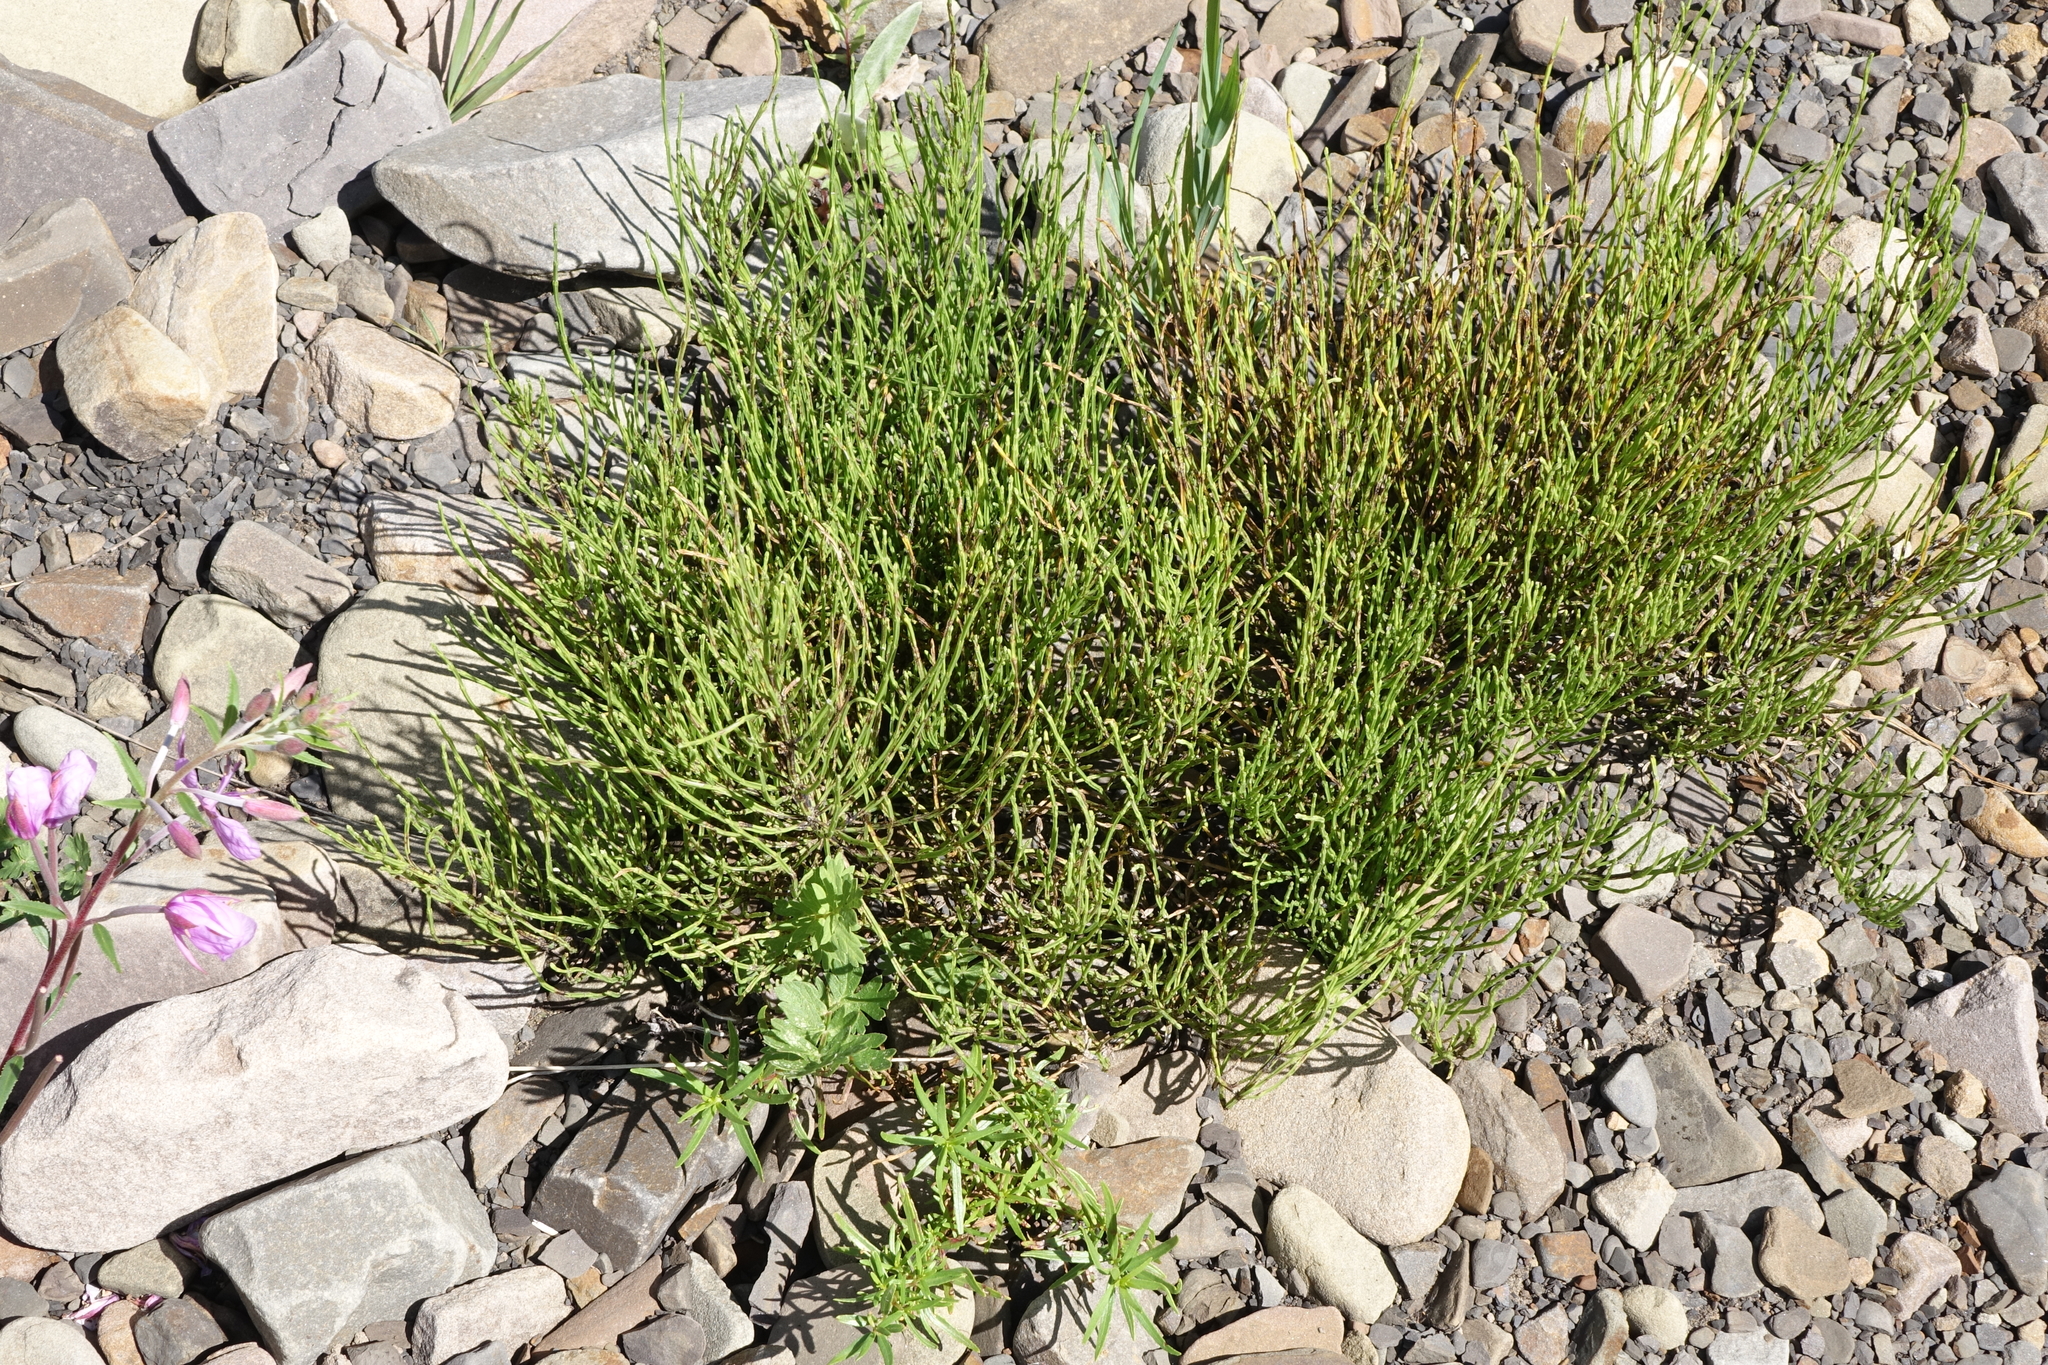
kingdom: Plantae
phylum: Tracheophyta
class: Polypodiopsida
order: Equisetales
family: Equisetaceae
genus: Equisetum
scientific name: Equisetum arvense
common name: Field horsetail
